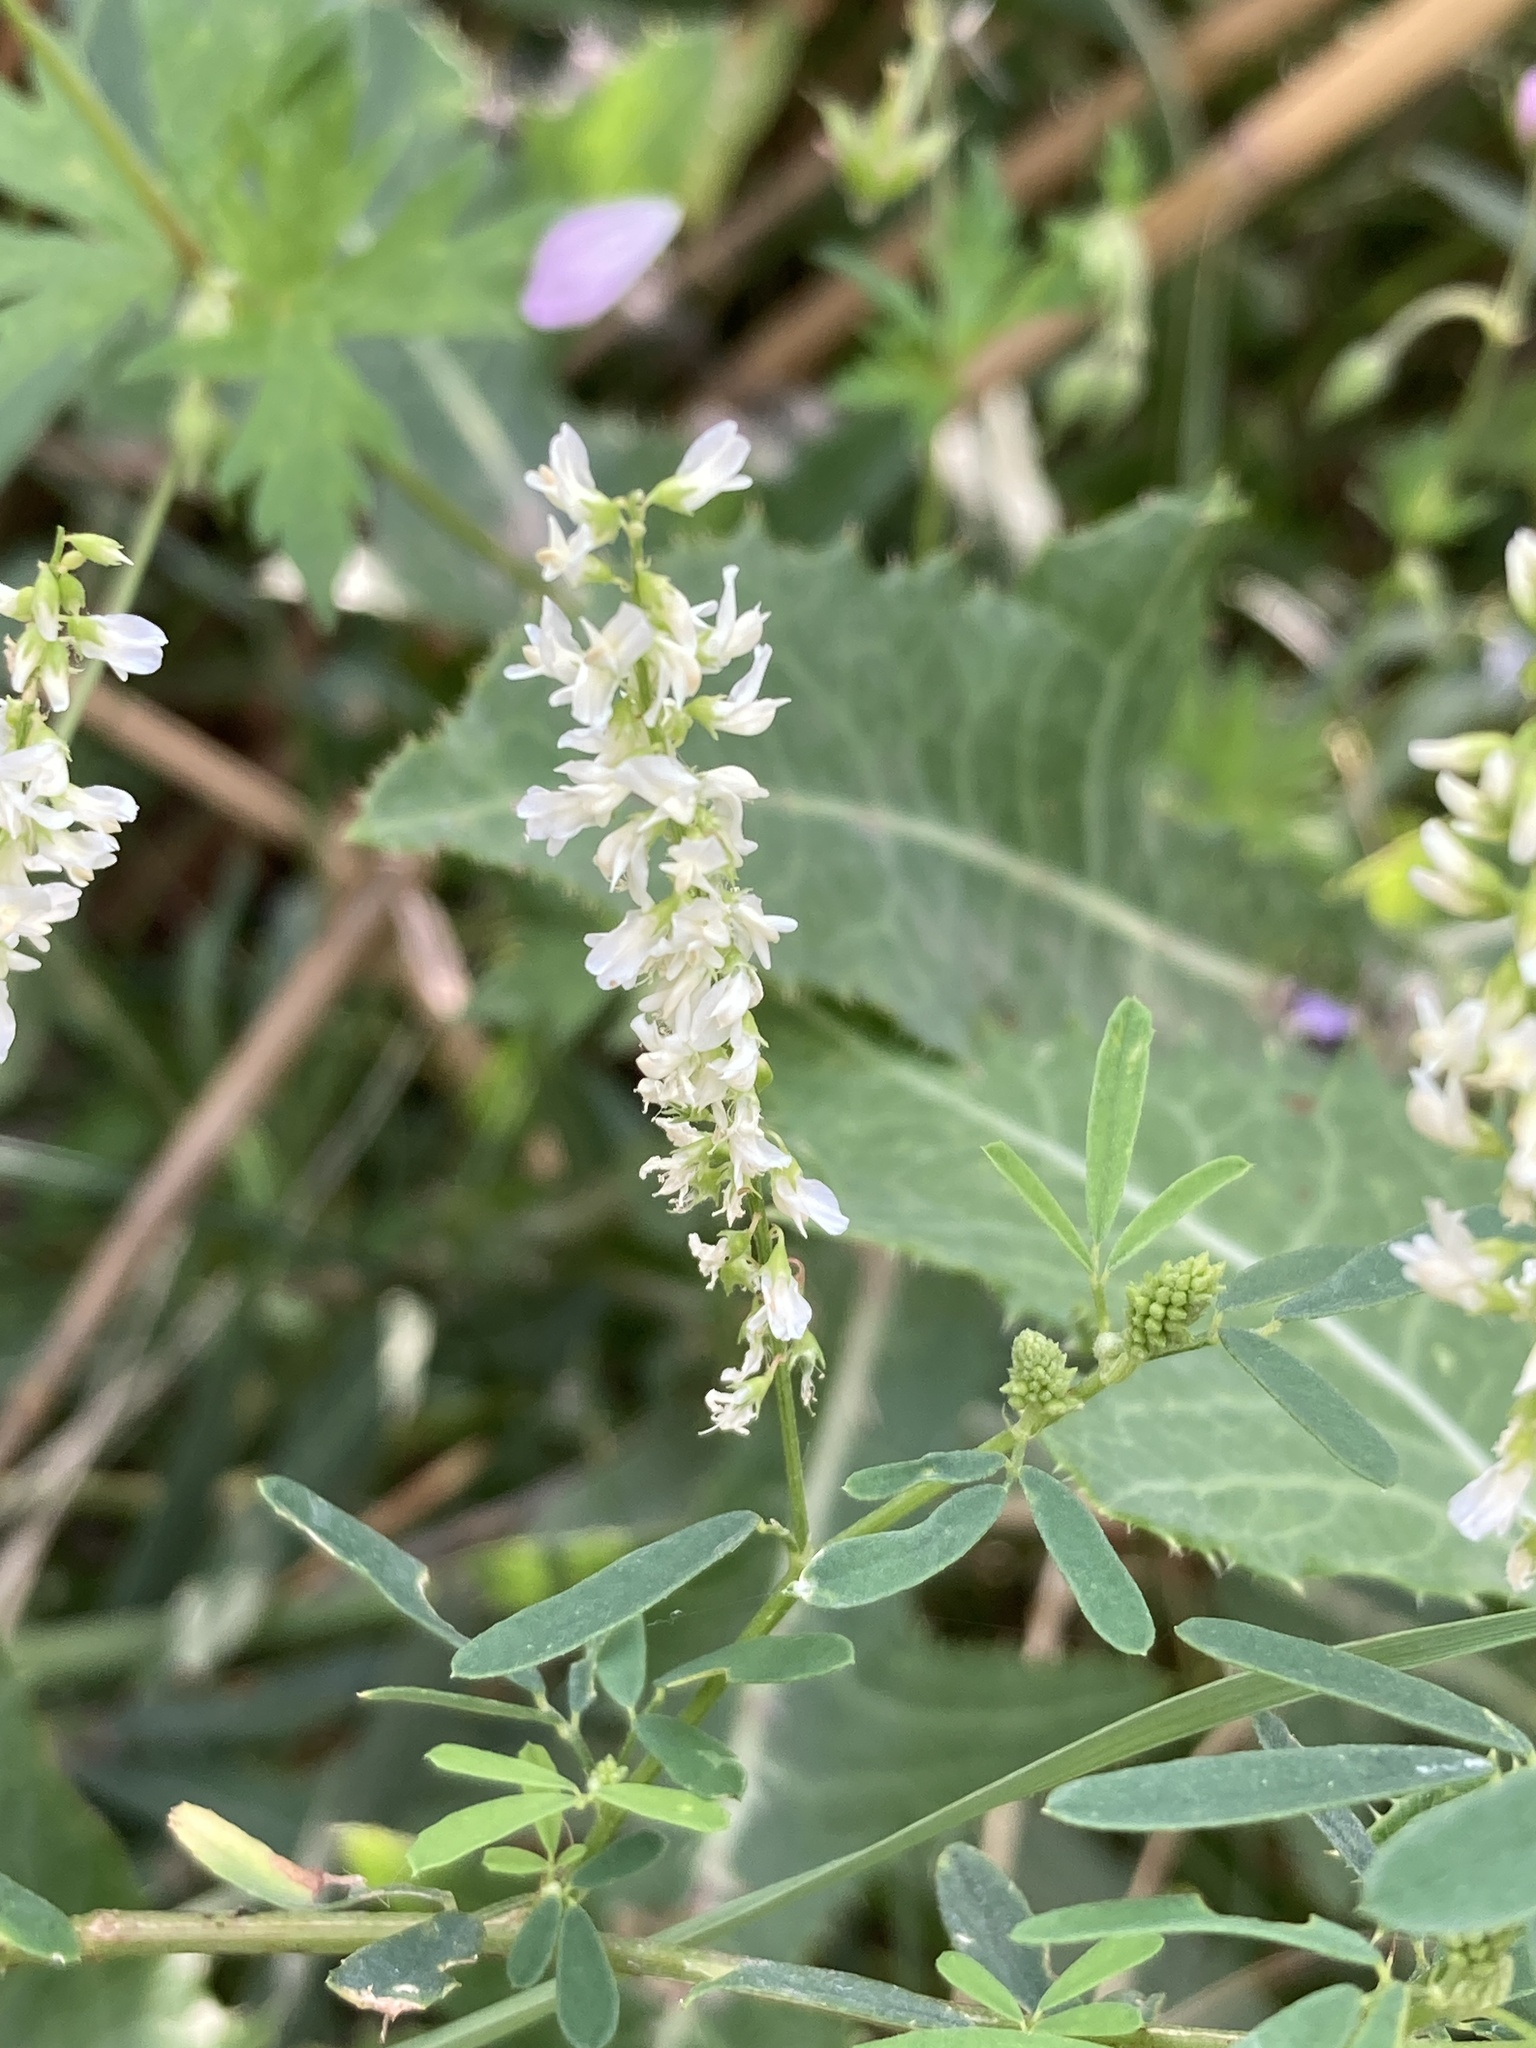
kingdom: Plantae
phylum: Tracheophyta
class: Magnoliopsida
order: Fabales
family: Fabaceae
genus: Melilotus
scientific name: Melilotus albus
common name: White melilot
